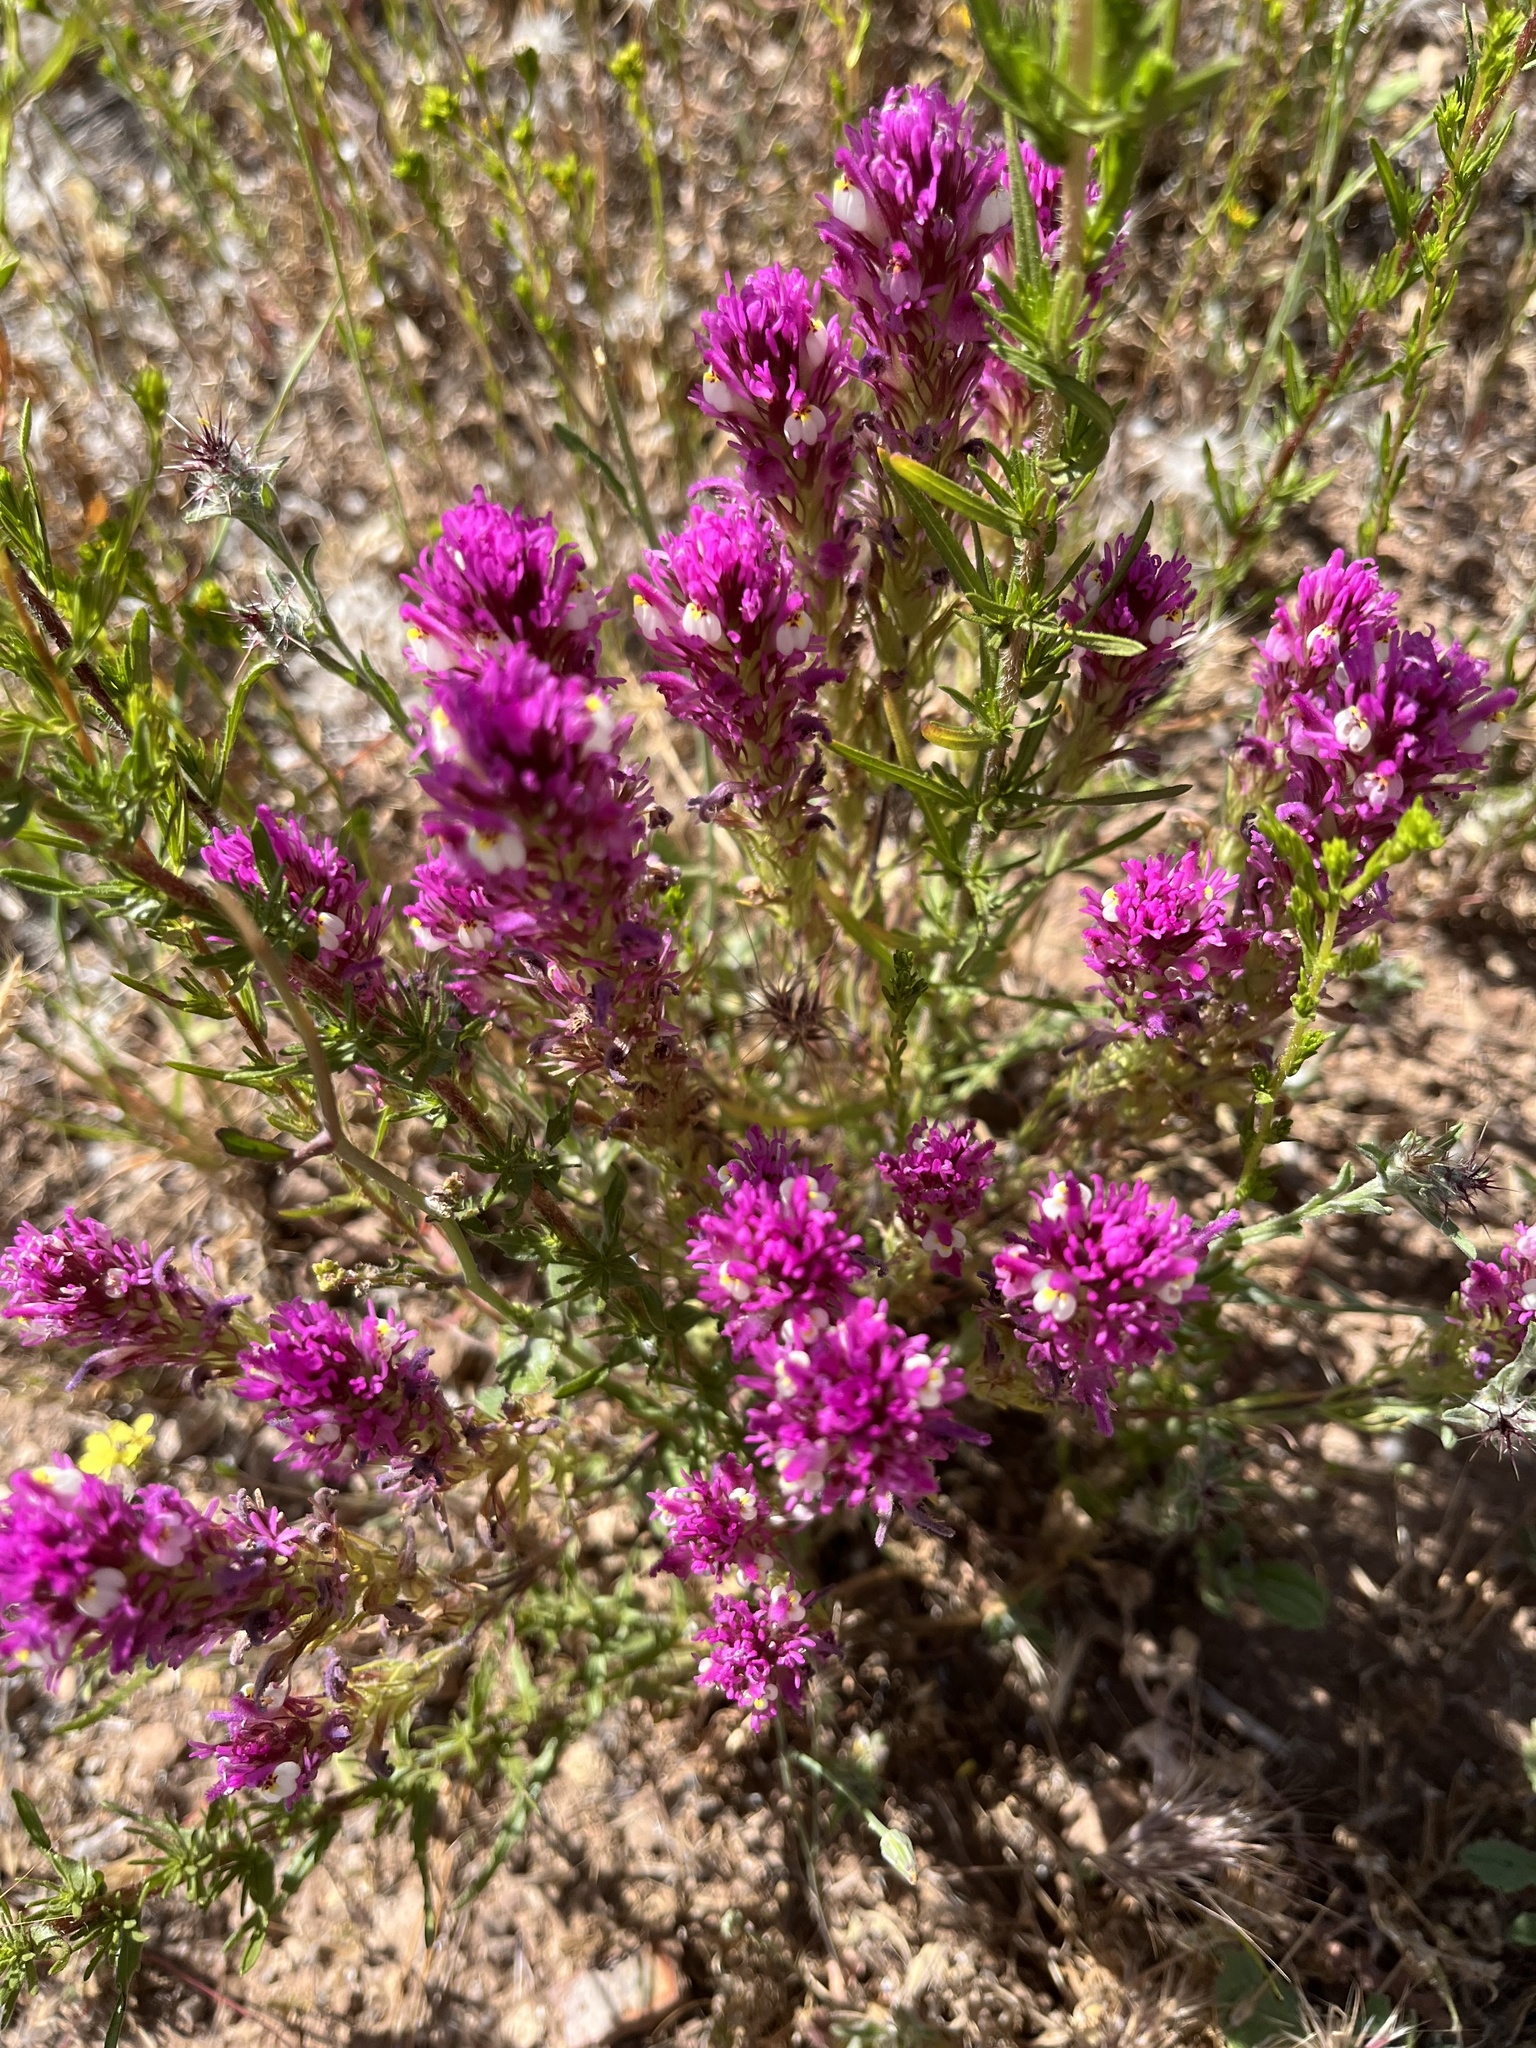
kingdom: Plantae
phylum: Tracheophyta
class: Magnoliopsida
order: Lamiales
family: Orobanchaceae
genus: Castilleja
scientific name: Castilleja exserta
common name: Purple owl-clover
